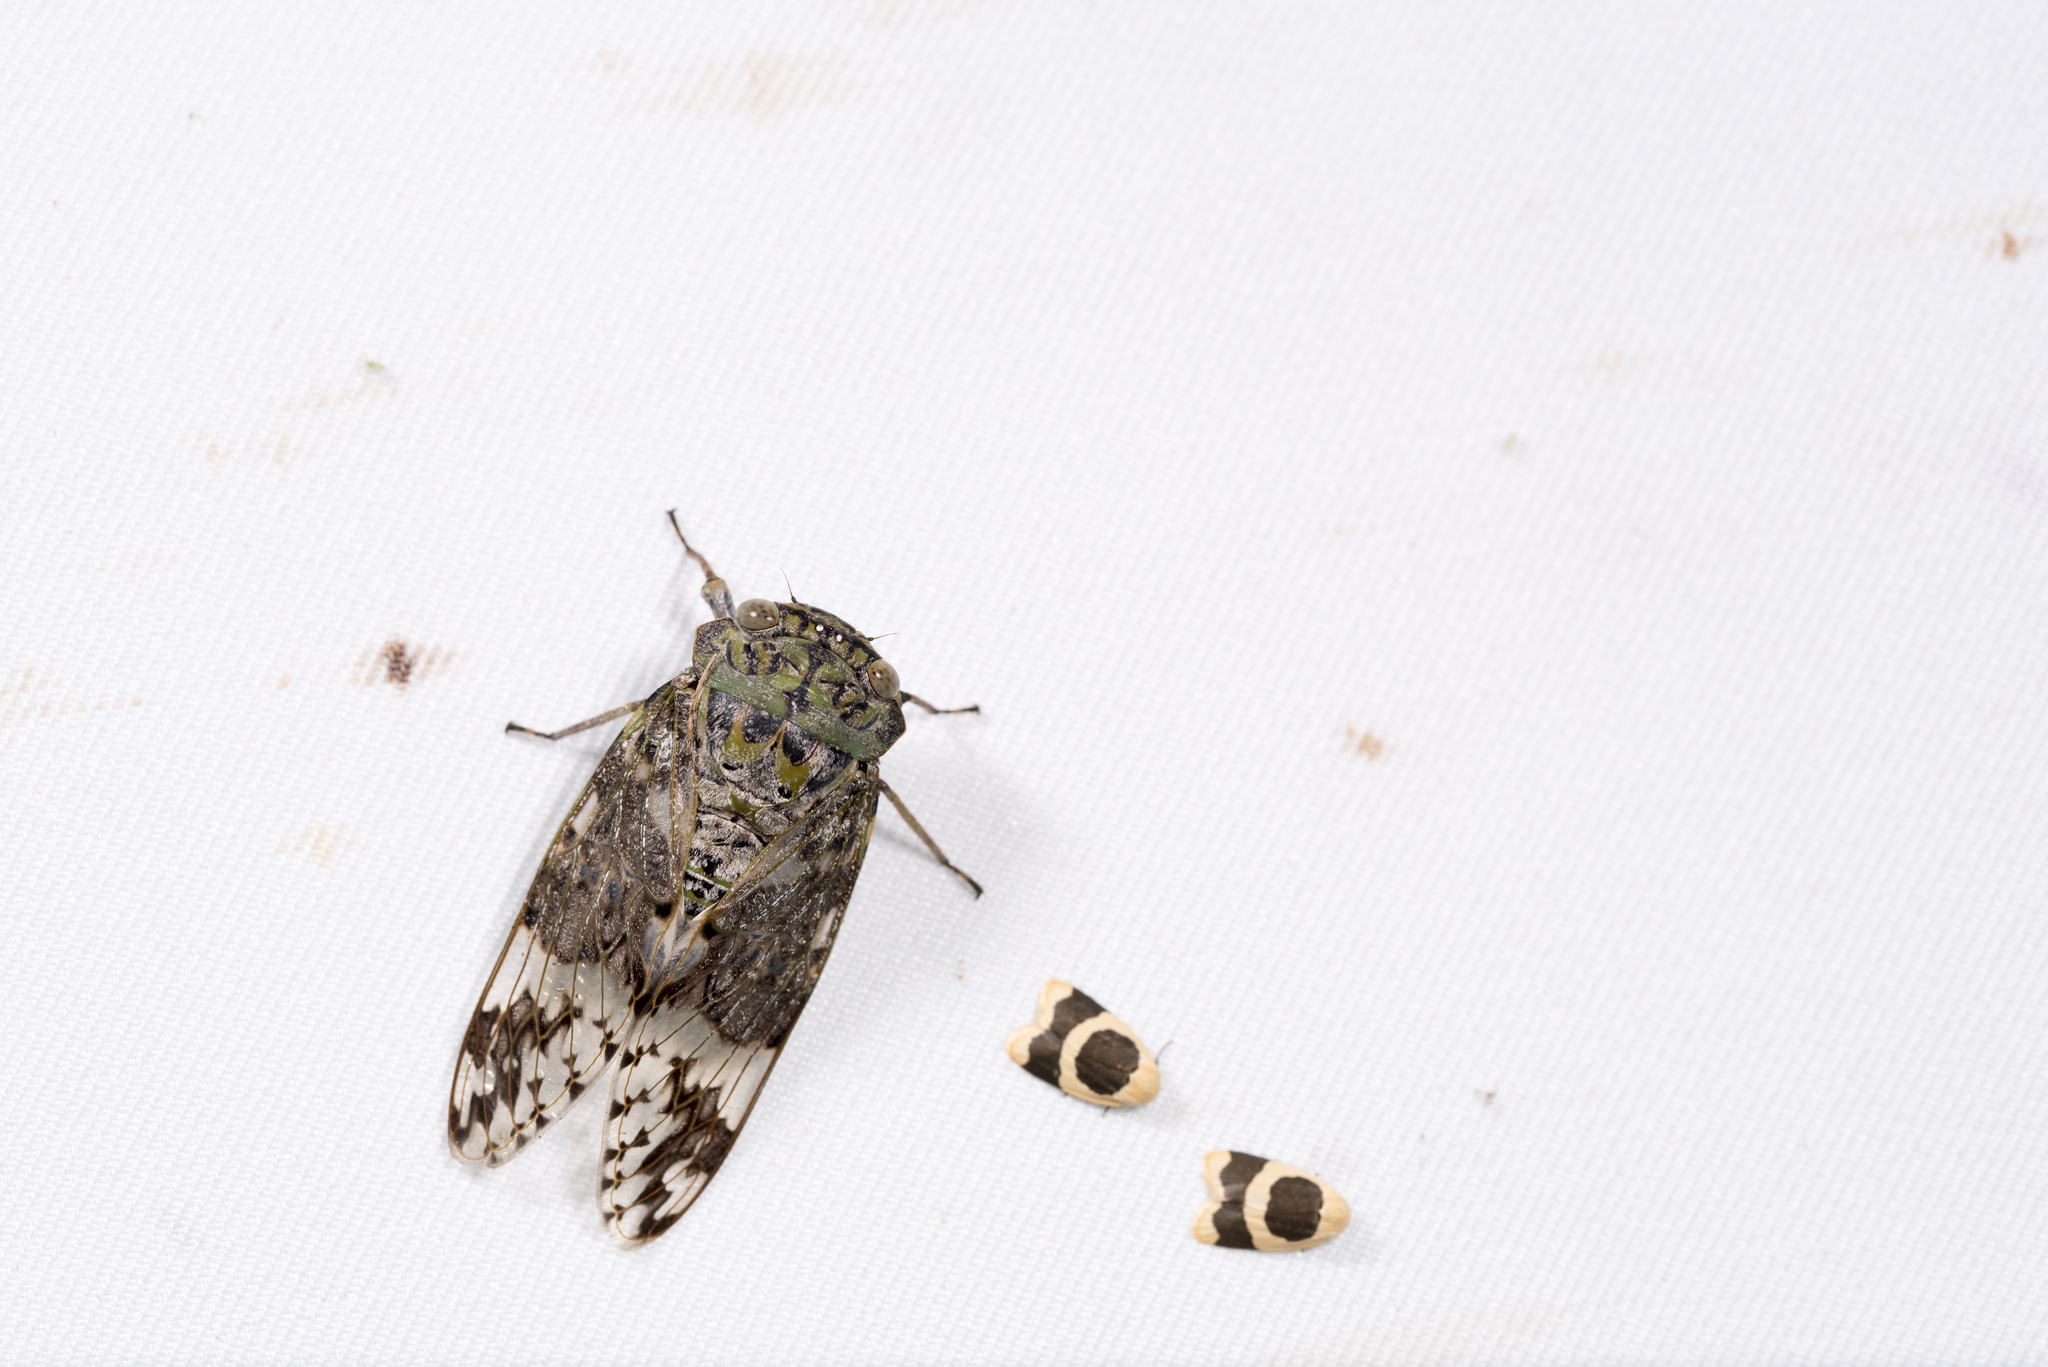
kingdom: Animalia
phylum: Arthropoda
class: Insecta
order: Hemiptera
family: Cicadidae
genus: Platypleura
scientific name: Platypleura takasagona
